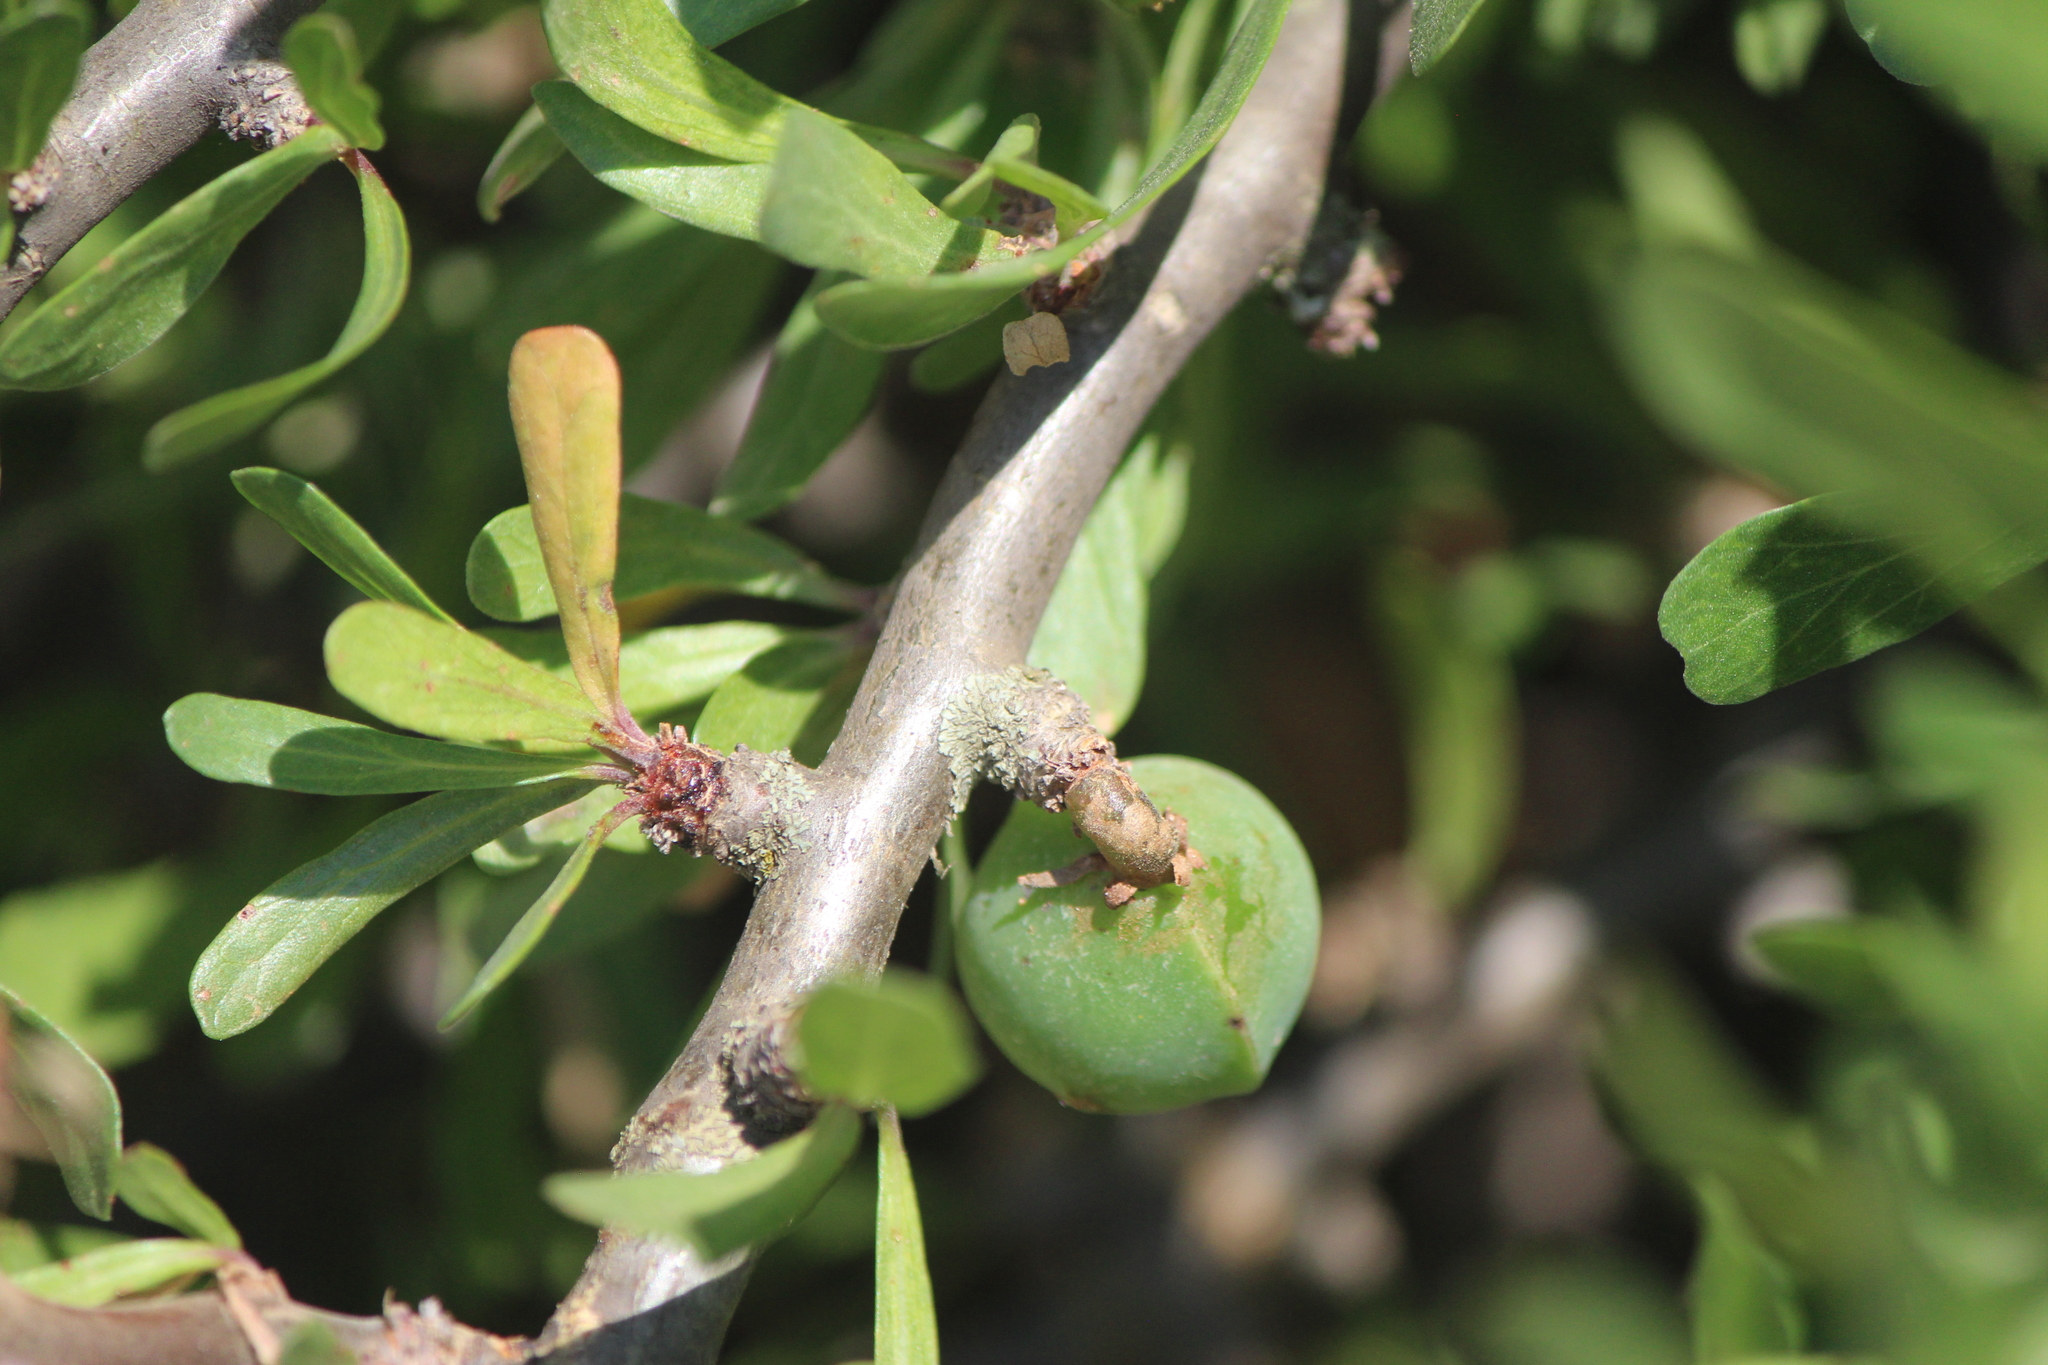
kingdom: Plantae
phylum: Tracheophyta
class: Magnoliopsida
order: Malpighiales
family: Euphorbiaceae
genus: Jatropha
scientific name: Jatropha dioica
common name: Leatherstem
